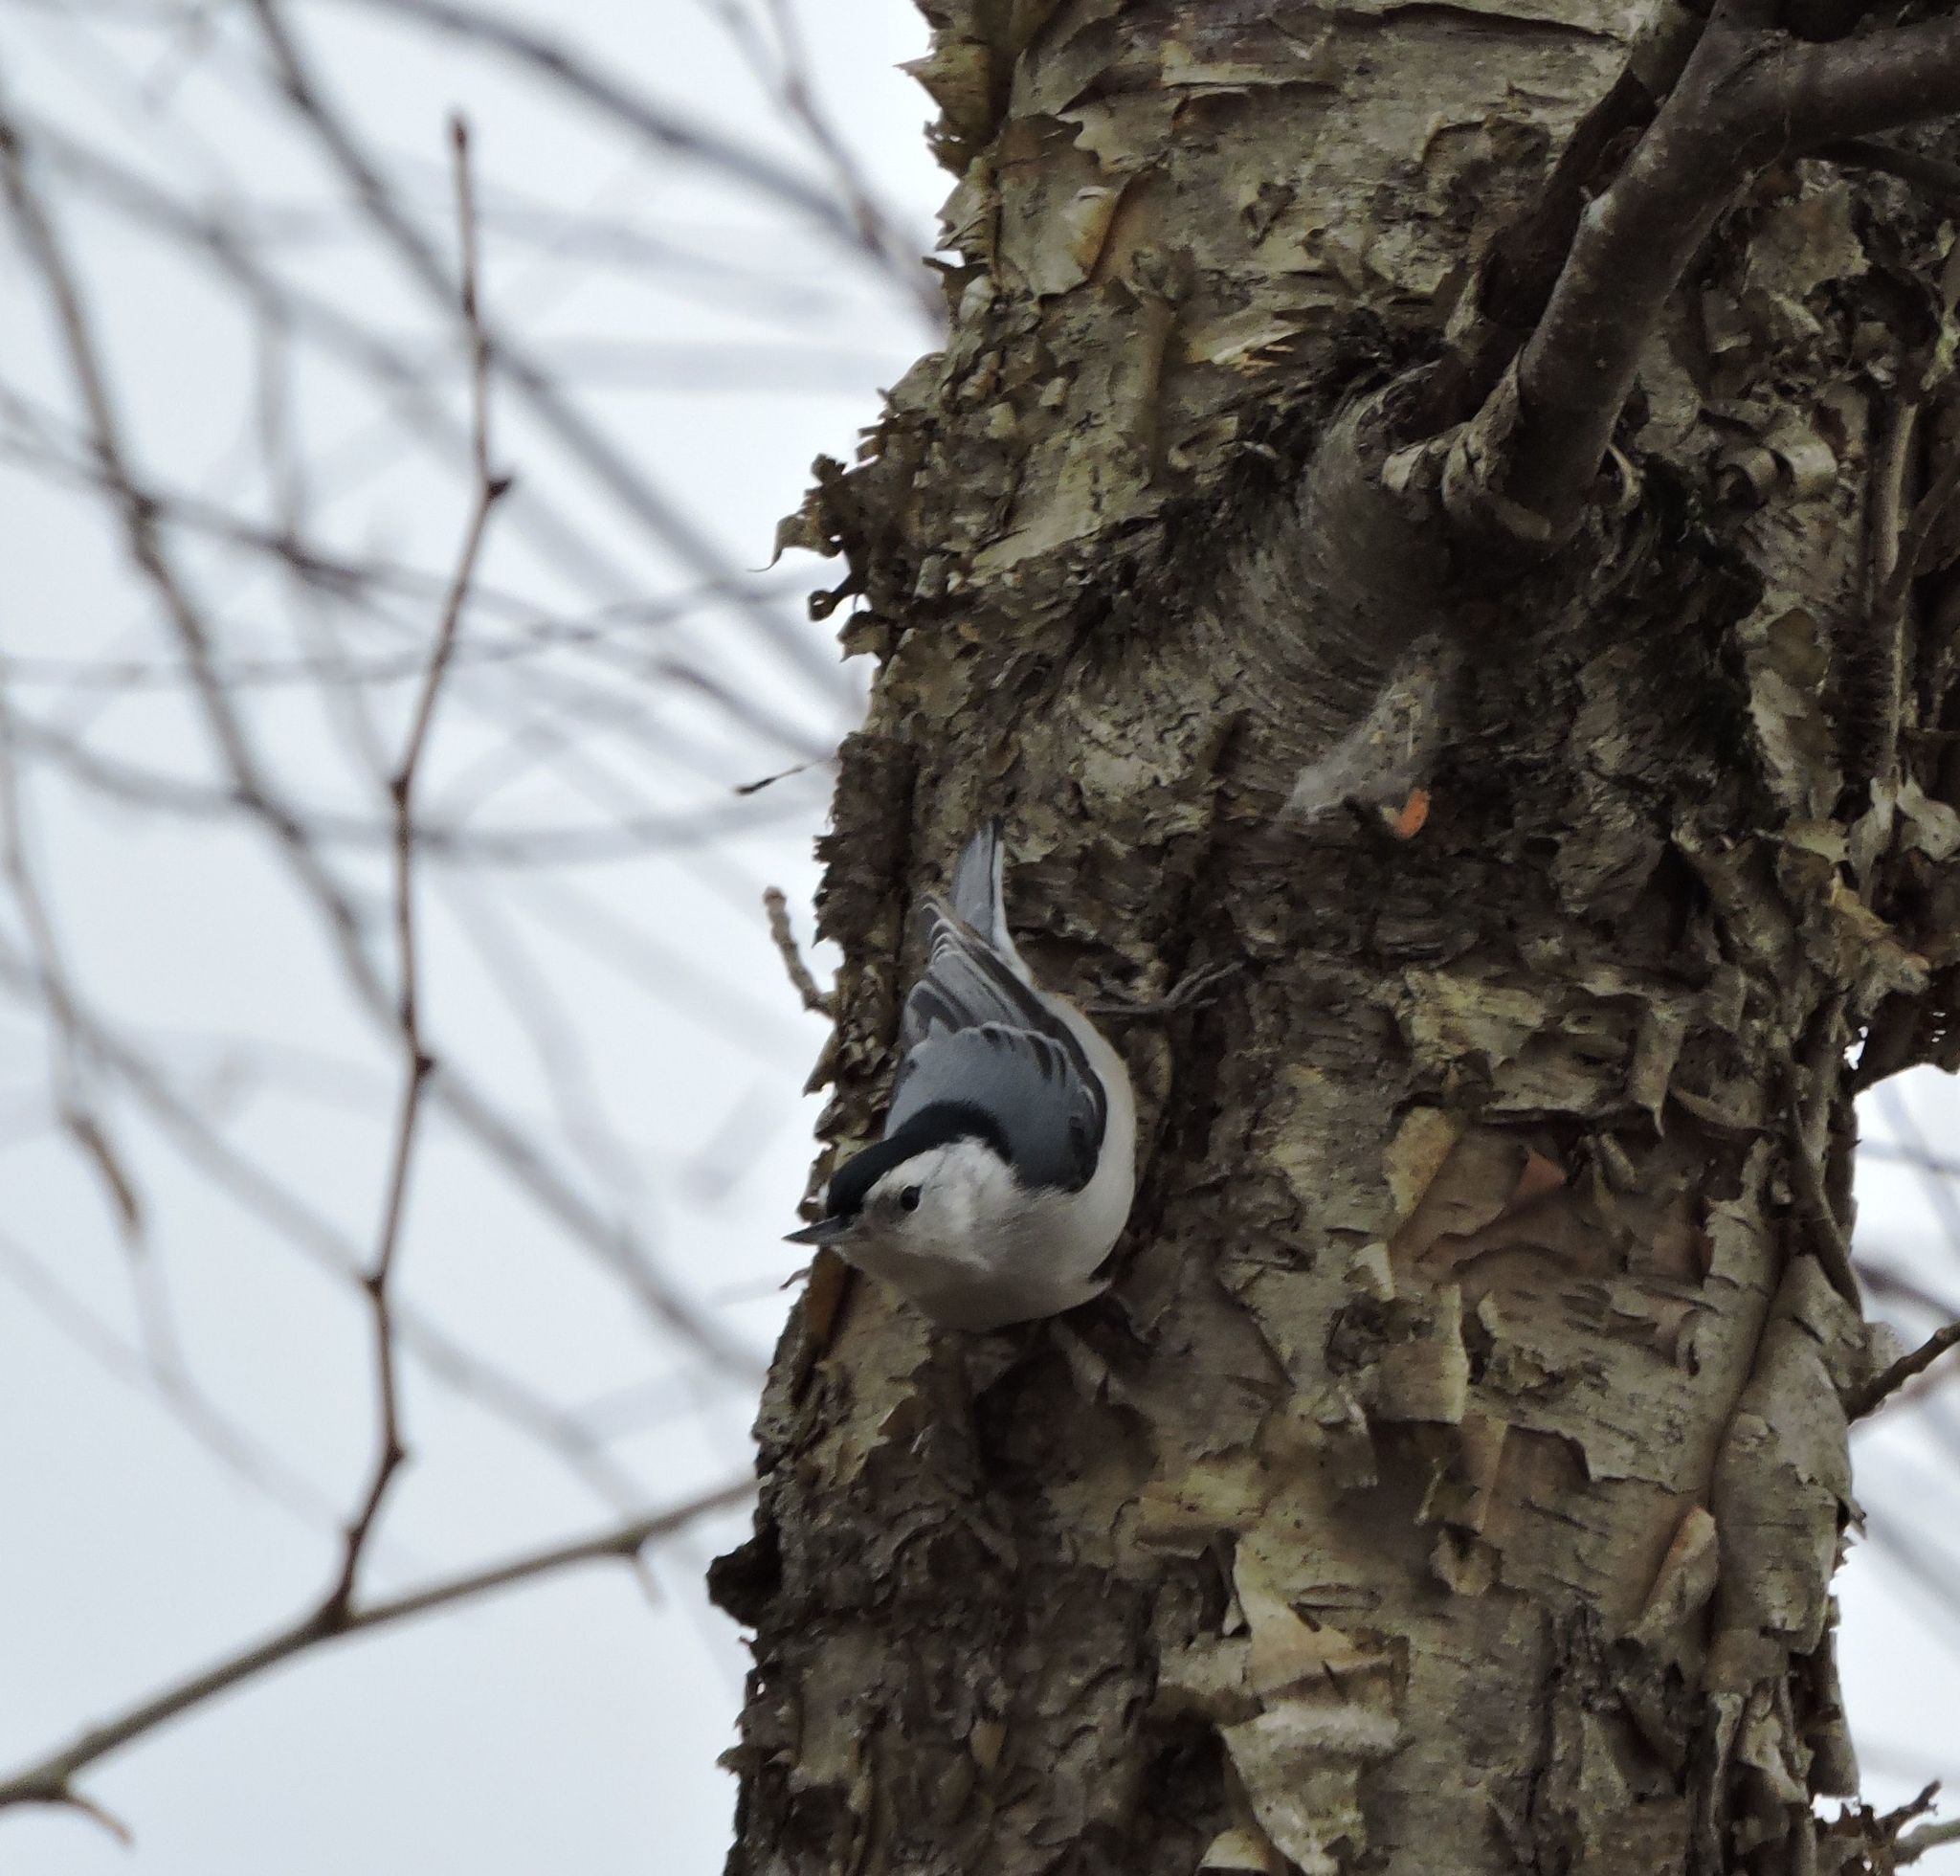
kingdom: Animalia
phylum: Chordata
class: Aves
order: Passeriformes
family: Sittidae
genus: Sitta
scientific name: Sitta carolinensis
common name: White-breasted nuthatch
